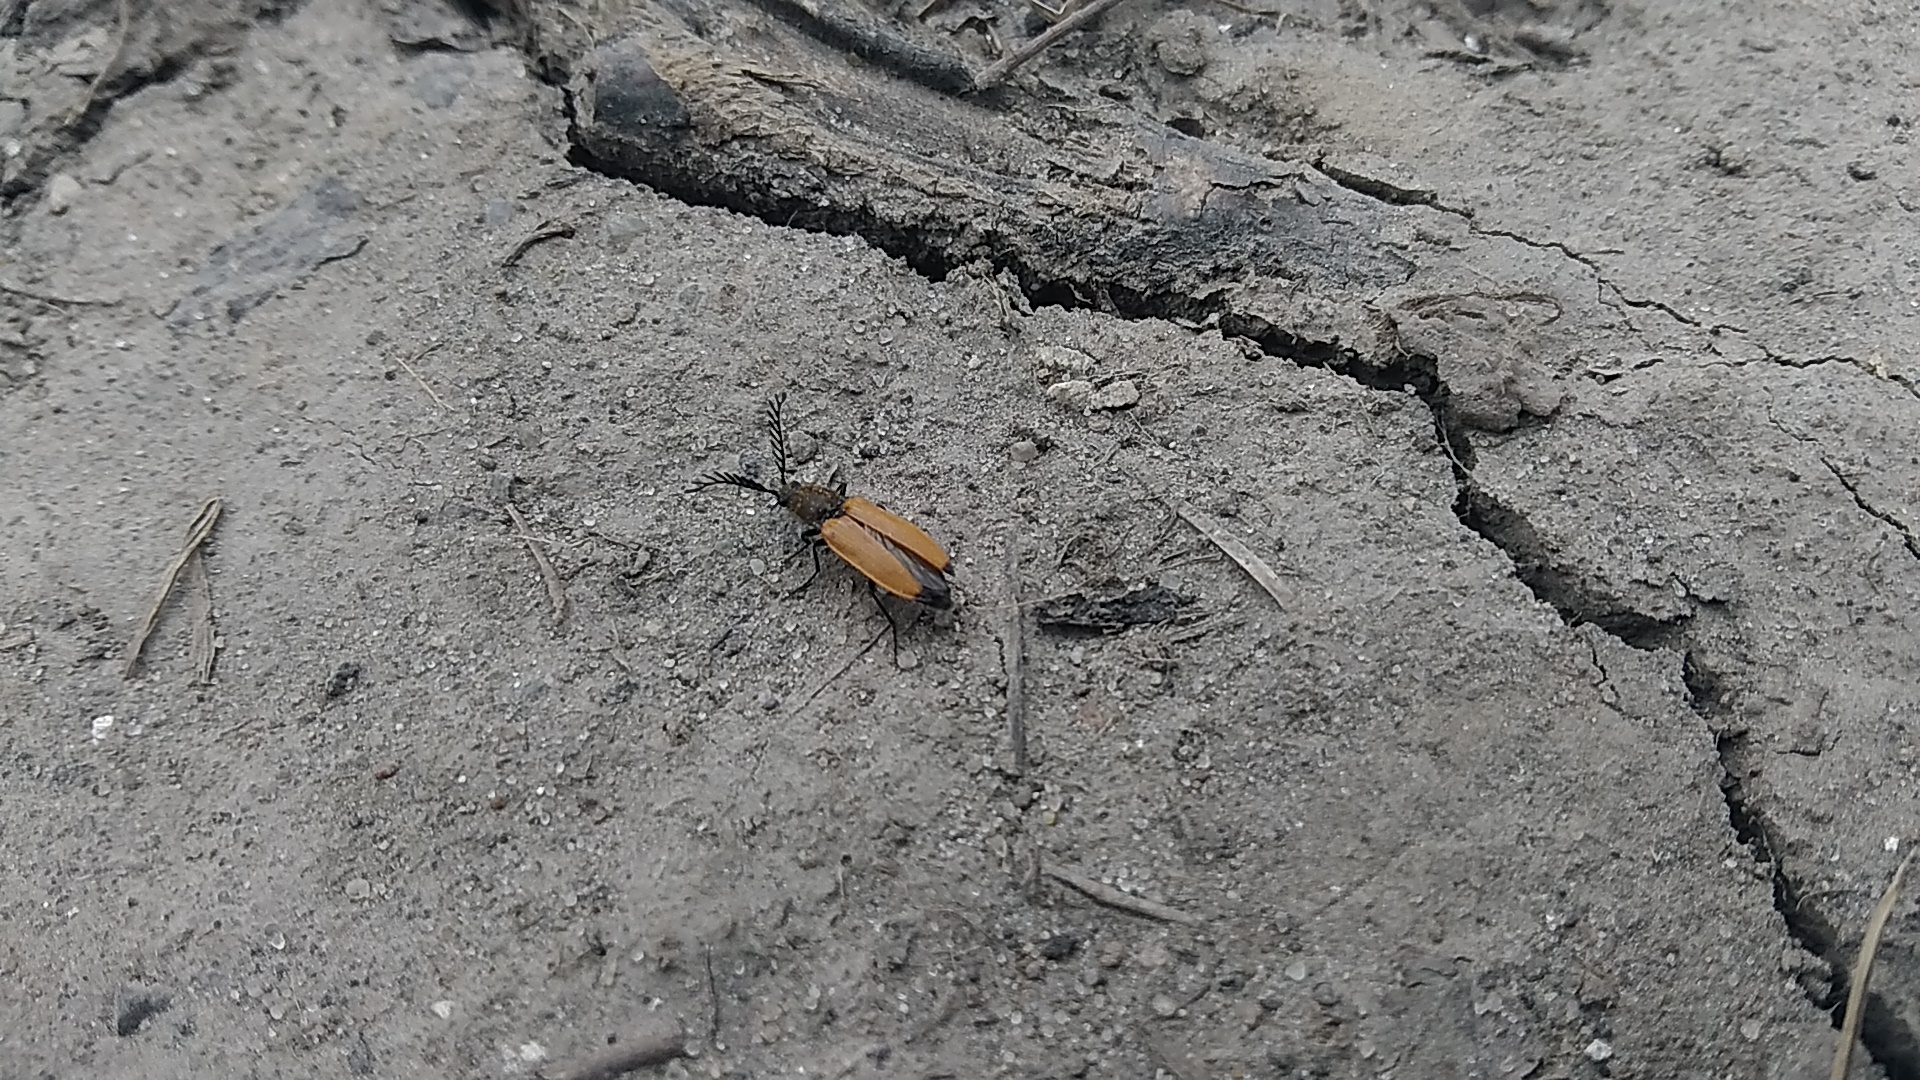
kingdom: Animalia
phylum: Arthropoda
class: Insecta
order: Coleoptera
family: Elateridae
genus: Anostirus
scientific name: Anostirus castaneus
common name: Chestnut coloured click beetle
